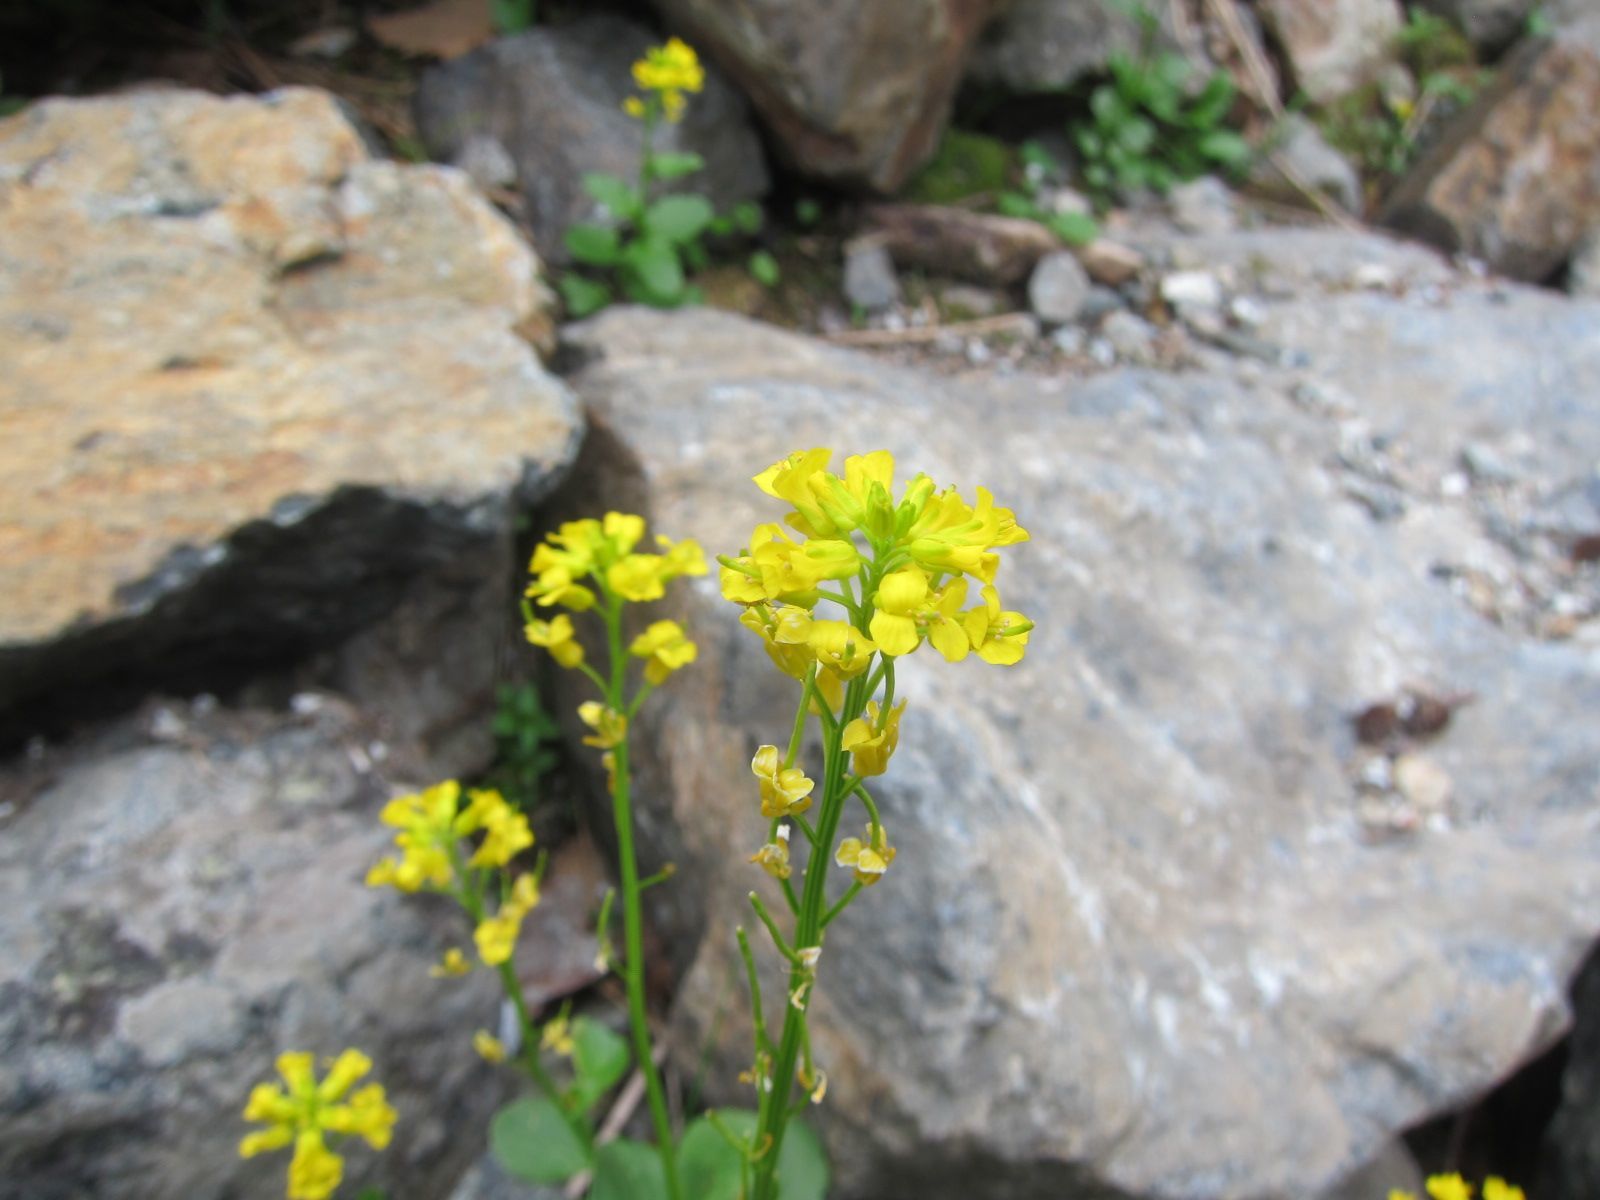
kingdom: Plantae
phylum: Tracheophyta
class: Magnoliopsida
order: Brassicales
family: Brassicaceae
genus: Barbarea
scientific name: Barbarea orthoceras
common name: American wintercress
